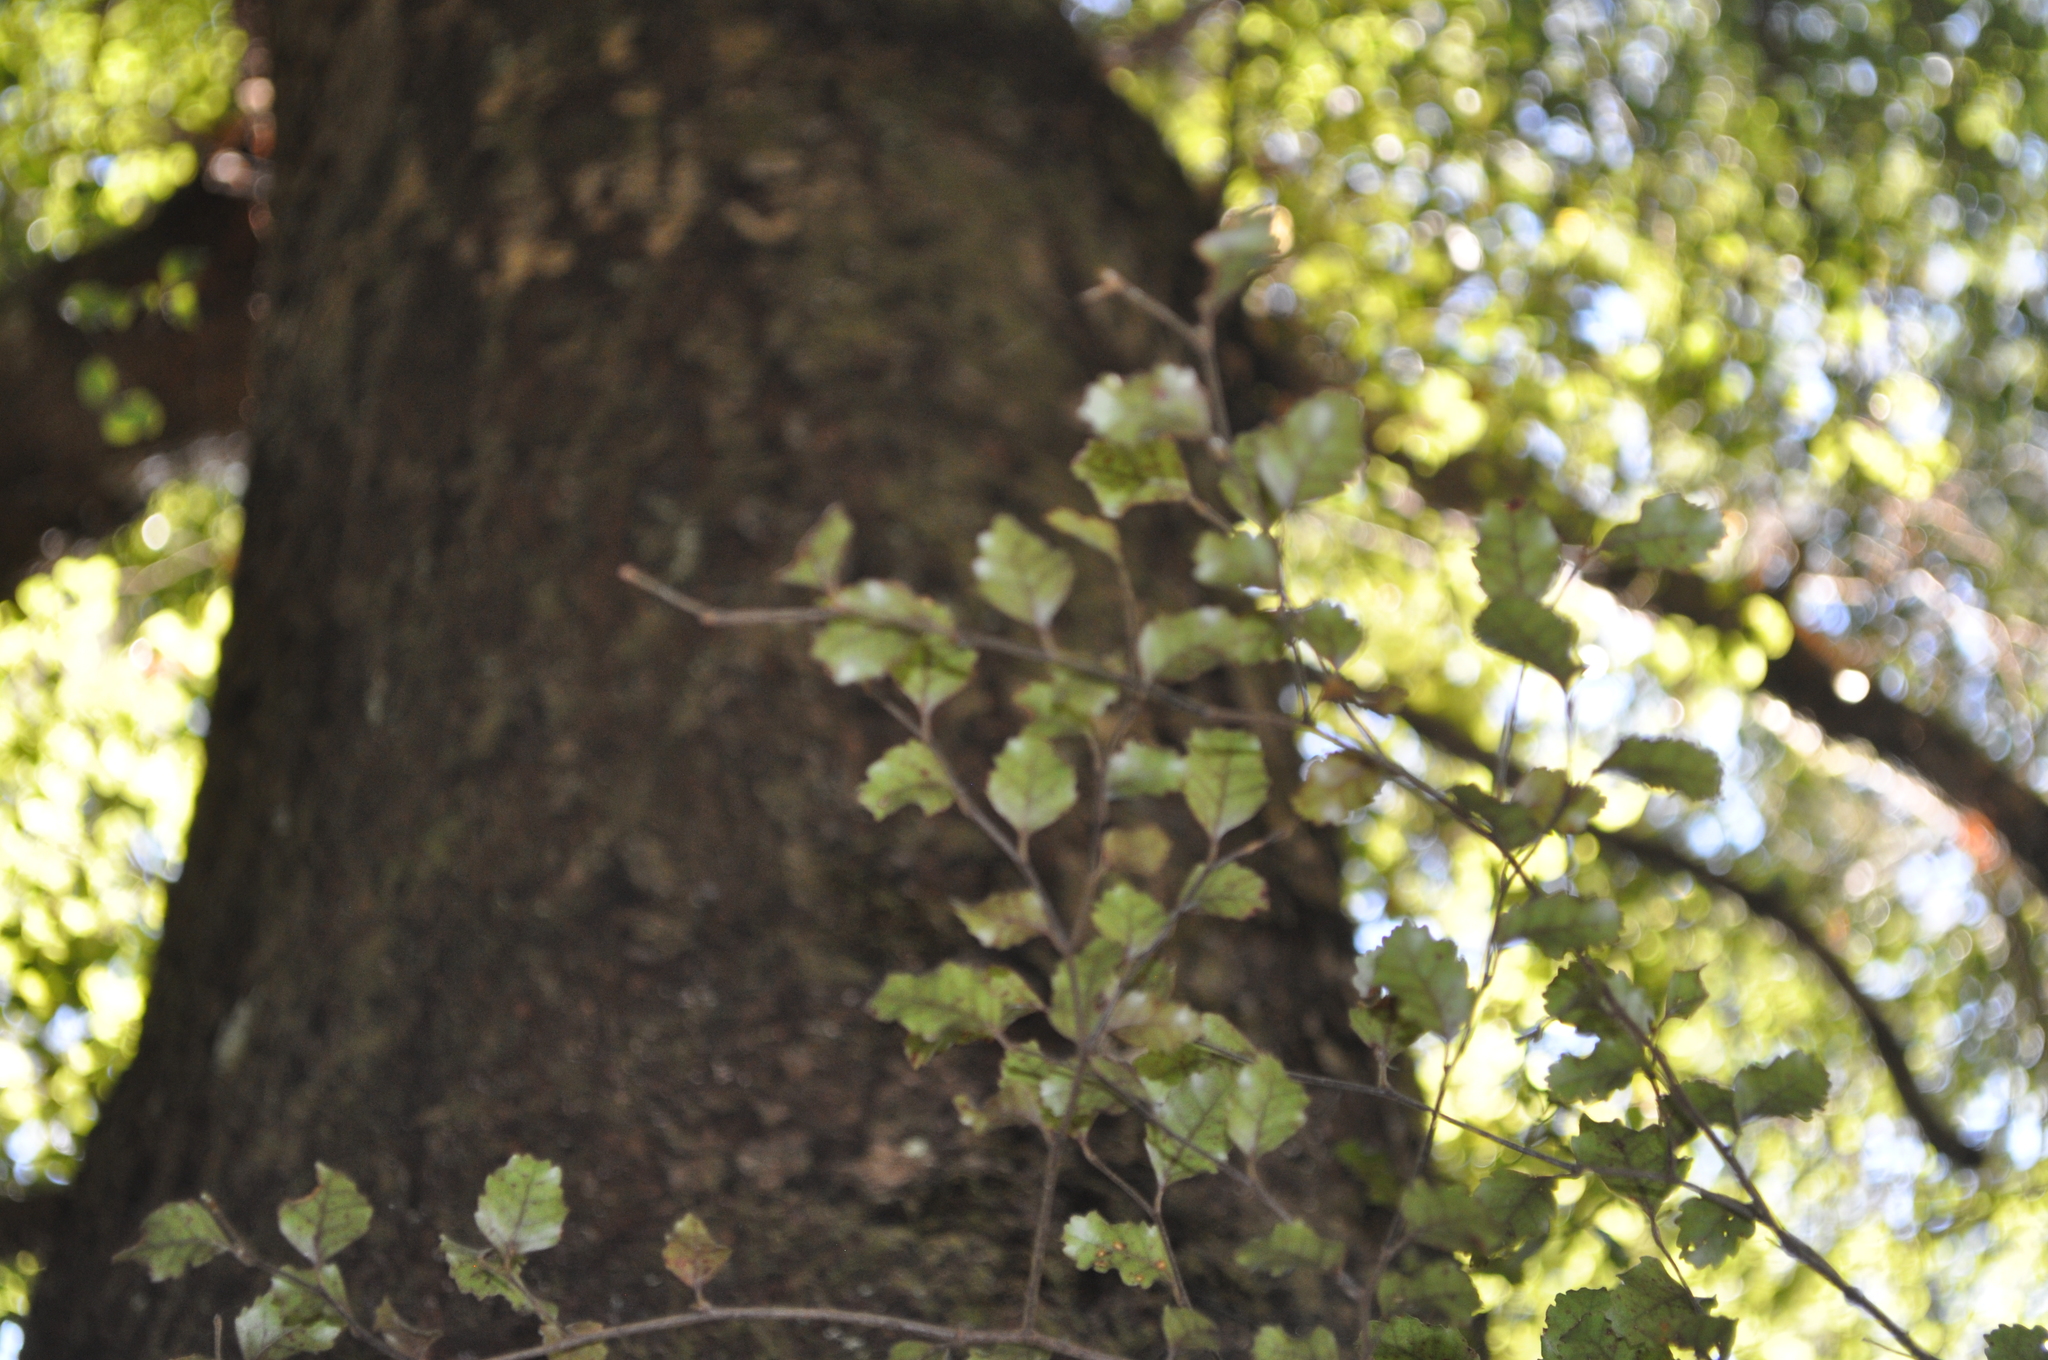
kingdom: Plantae
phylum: Tracheophyta
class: Magnoliopsida
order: Fagales
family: Nothofagaceae
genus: Nothofagus
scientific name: Nothofagus truncata
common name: Hard beech
